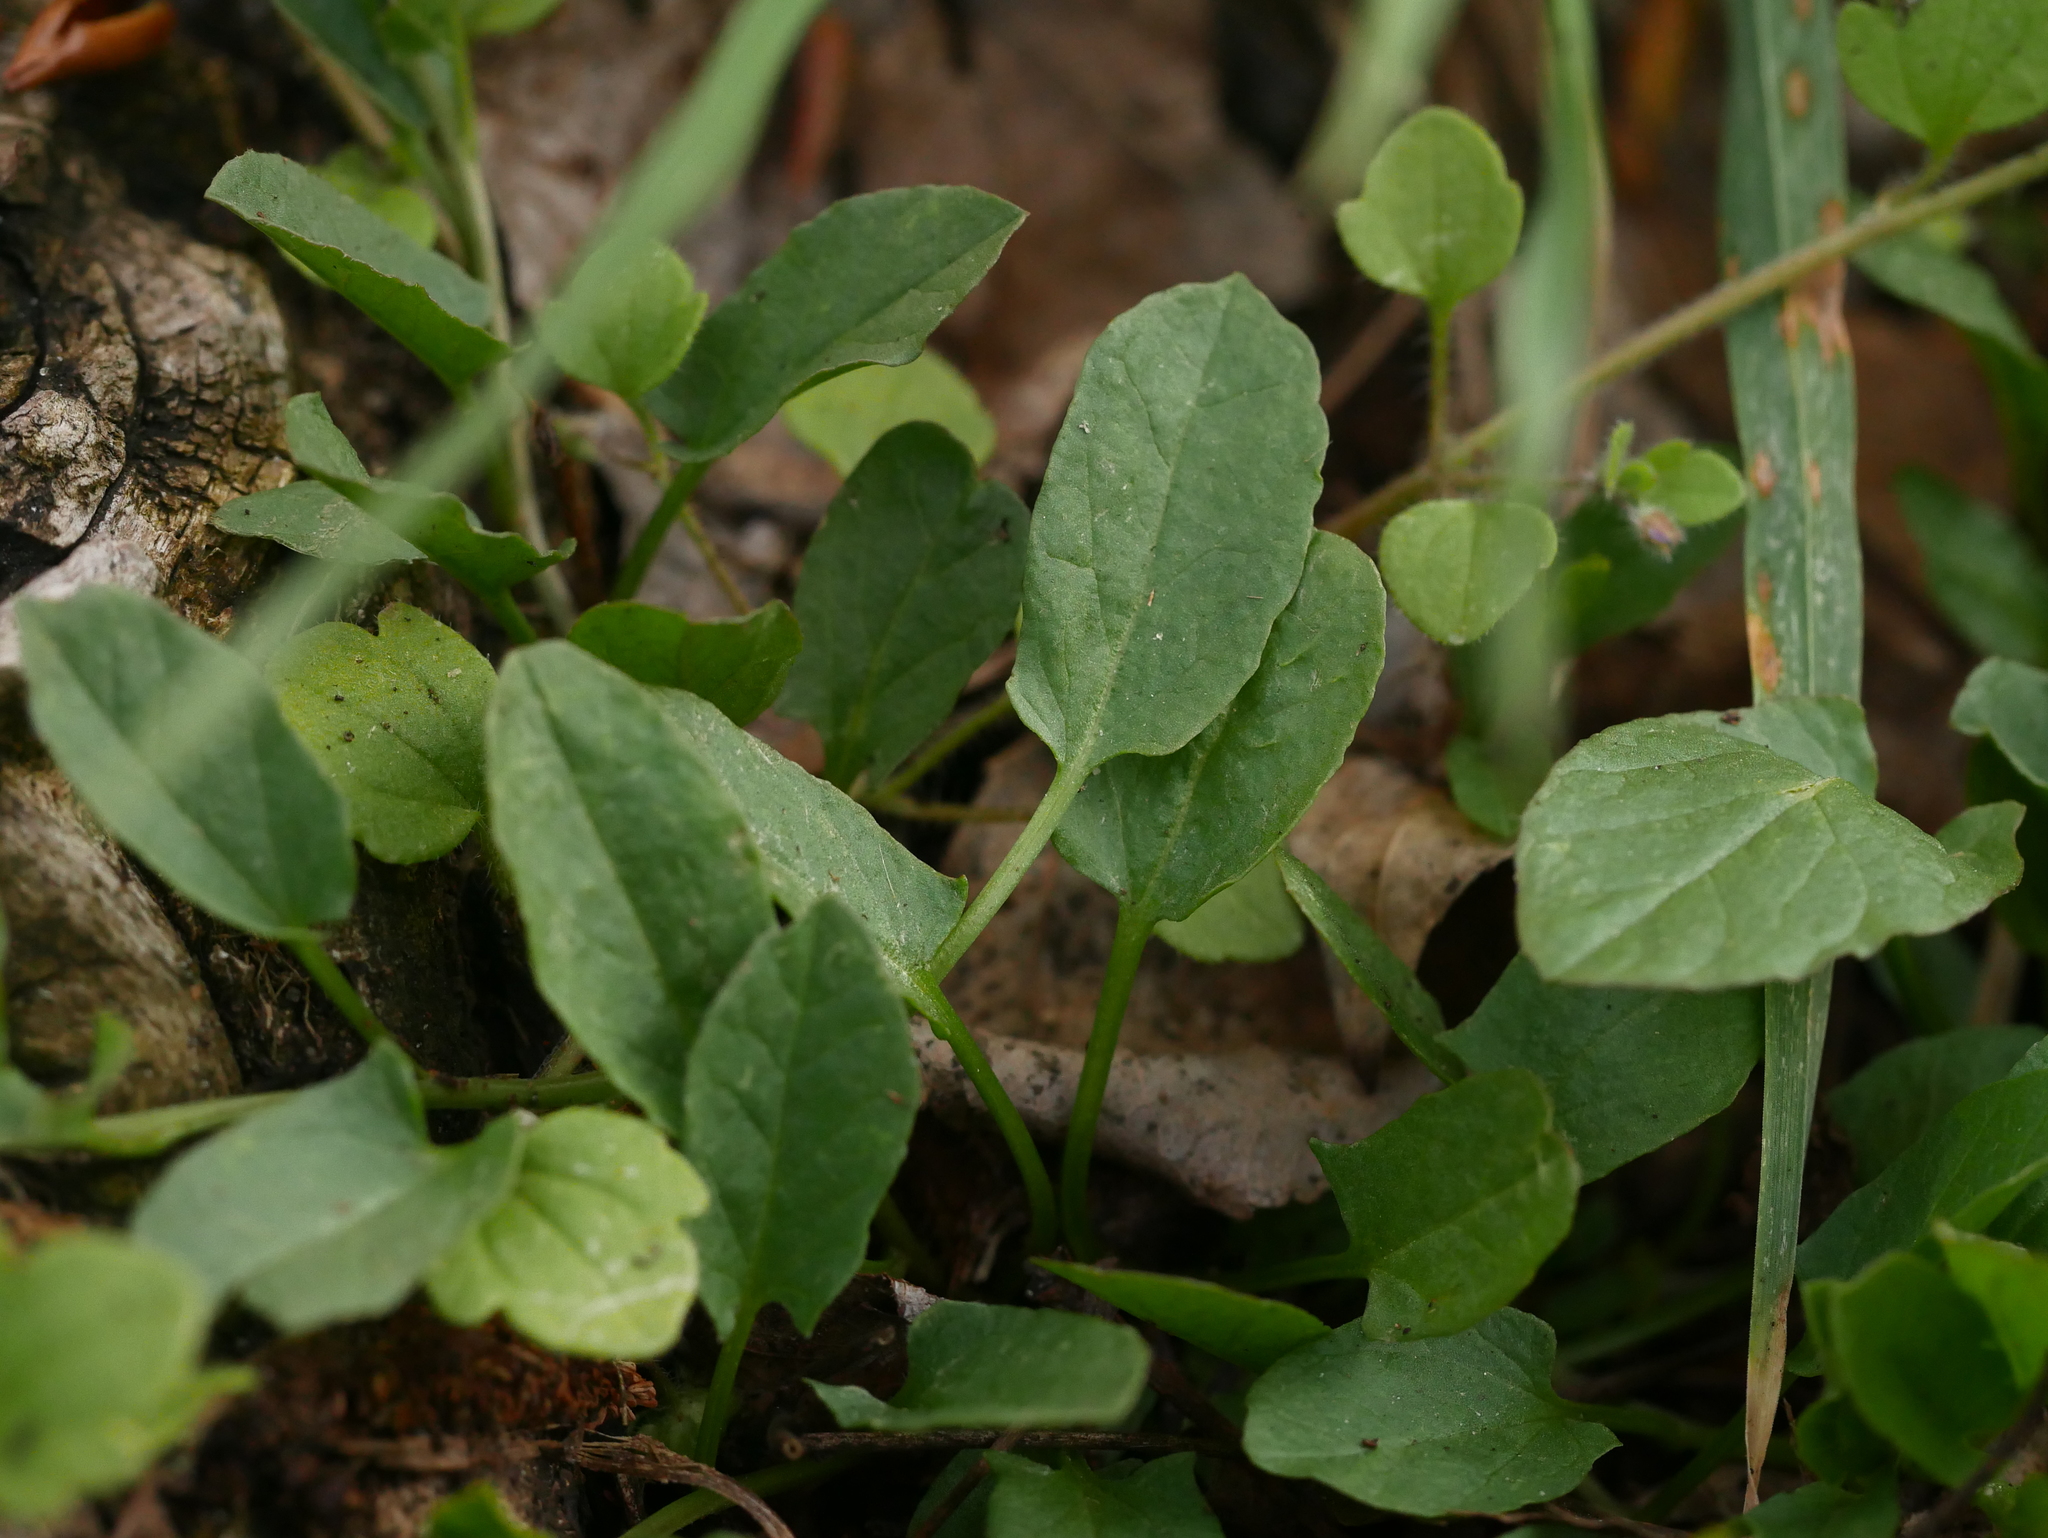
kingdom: Plantae
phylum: Tracheophyta
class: Magnoliopsida
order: Solanales
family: Convolvulaceae
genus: Convolvulus
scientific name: Convolvulus arvensis
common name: Field bindweed
